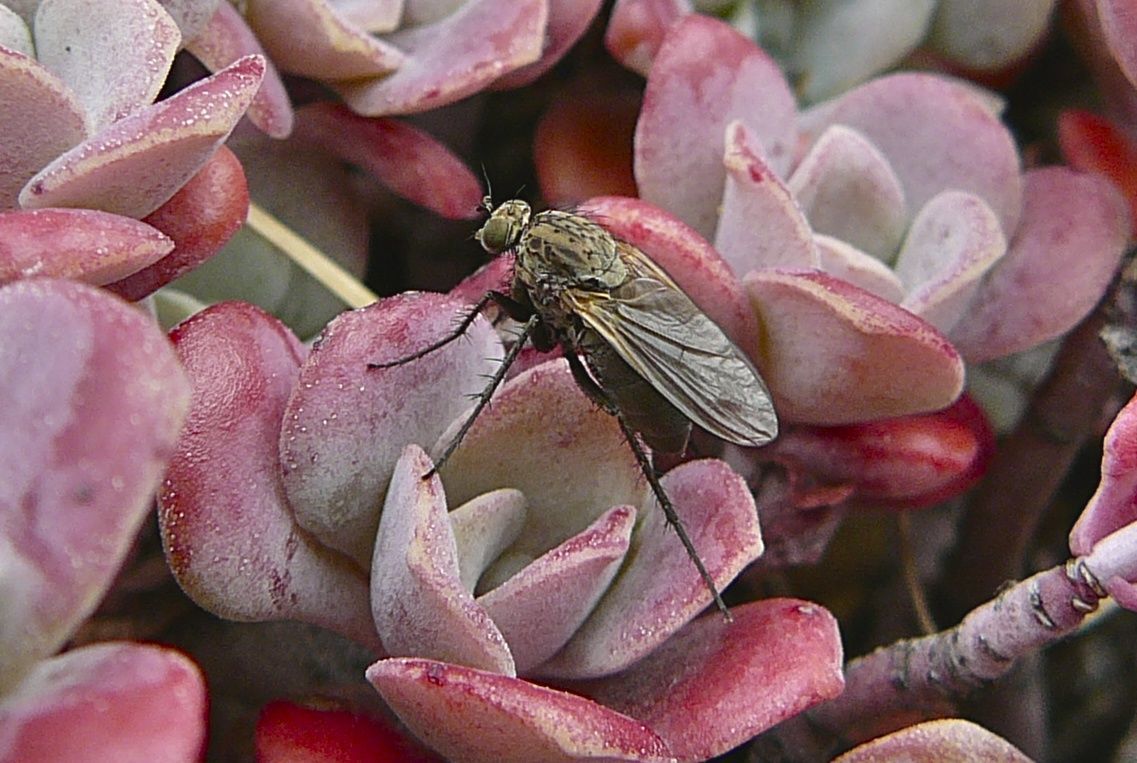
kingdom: Animalia
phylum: Arthropoda
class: Insecta
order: Diptera
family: Dolichopodidae
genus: Ostenia
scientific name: Ostenia robusta
